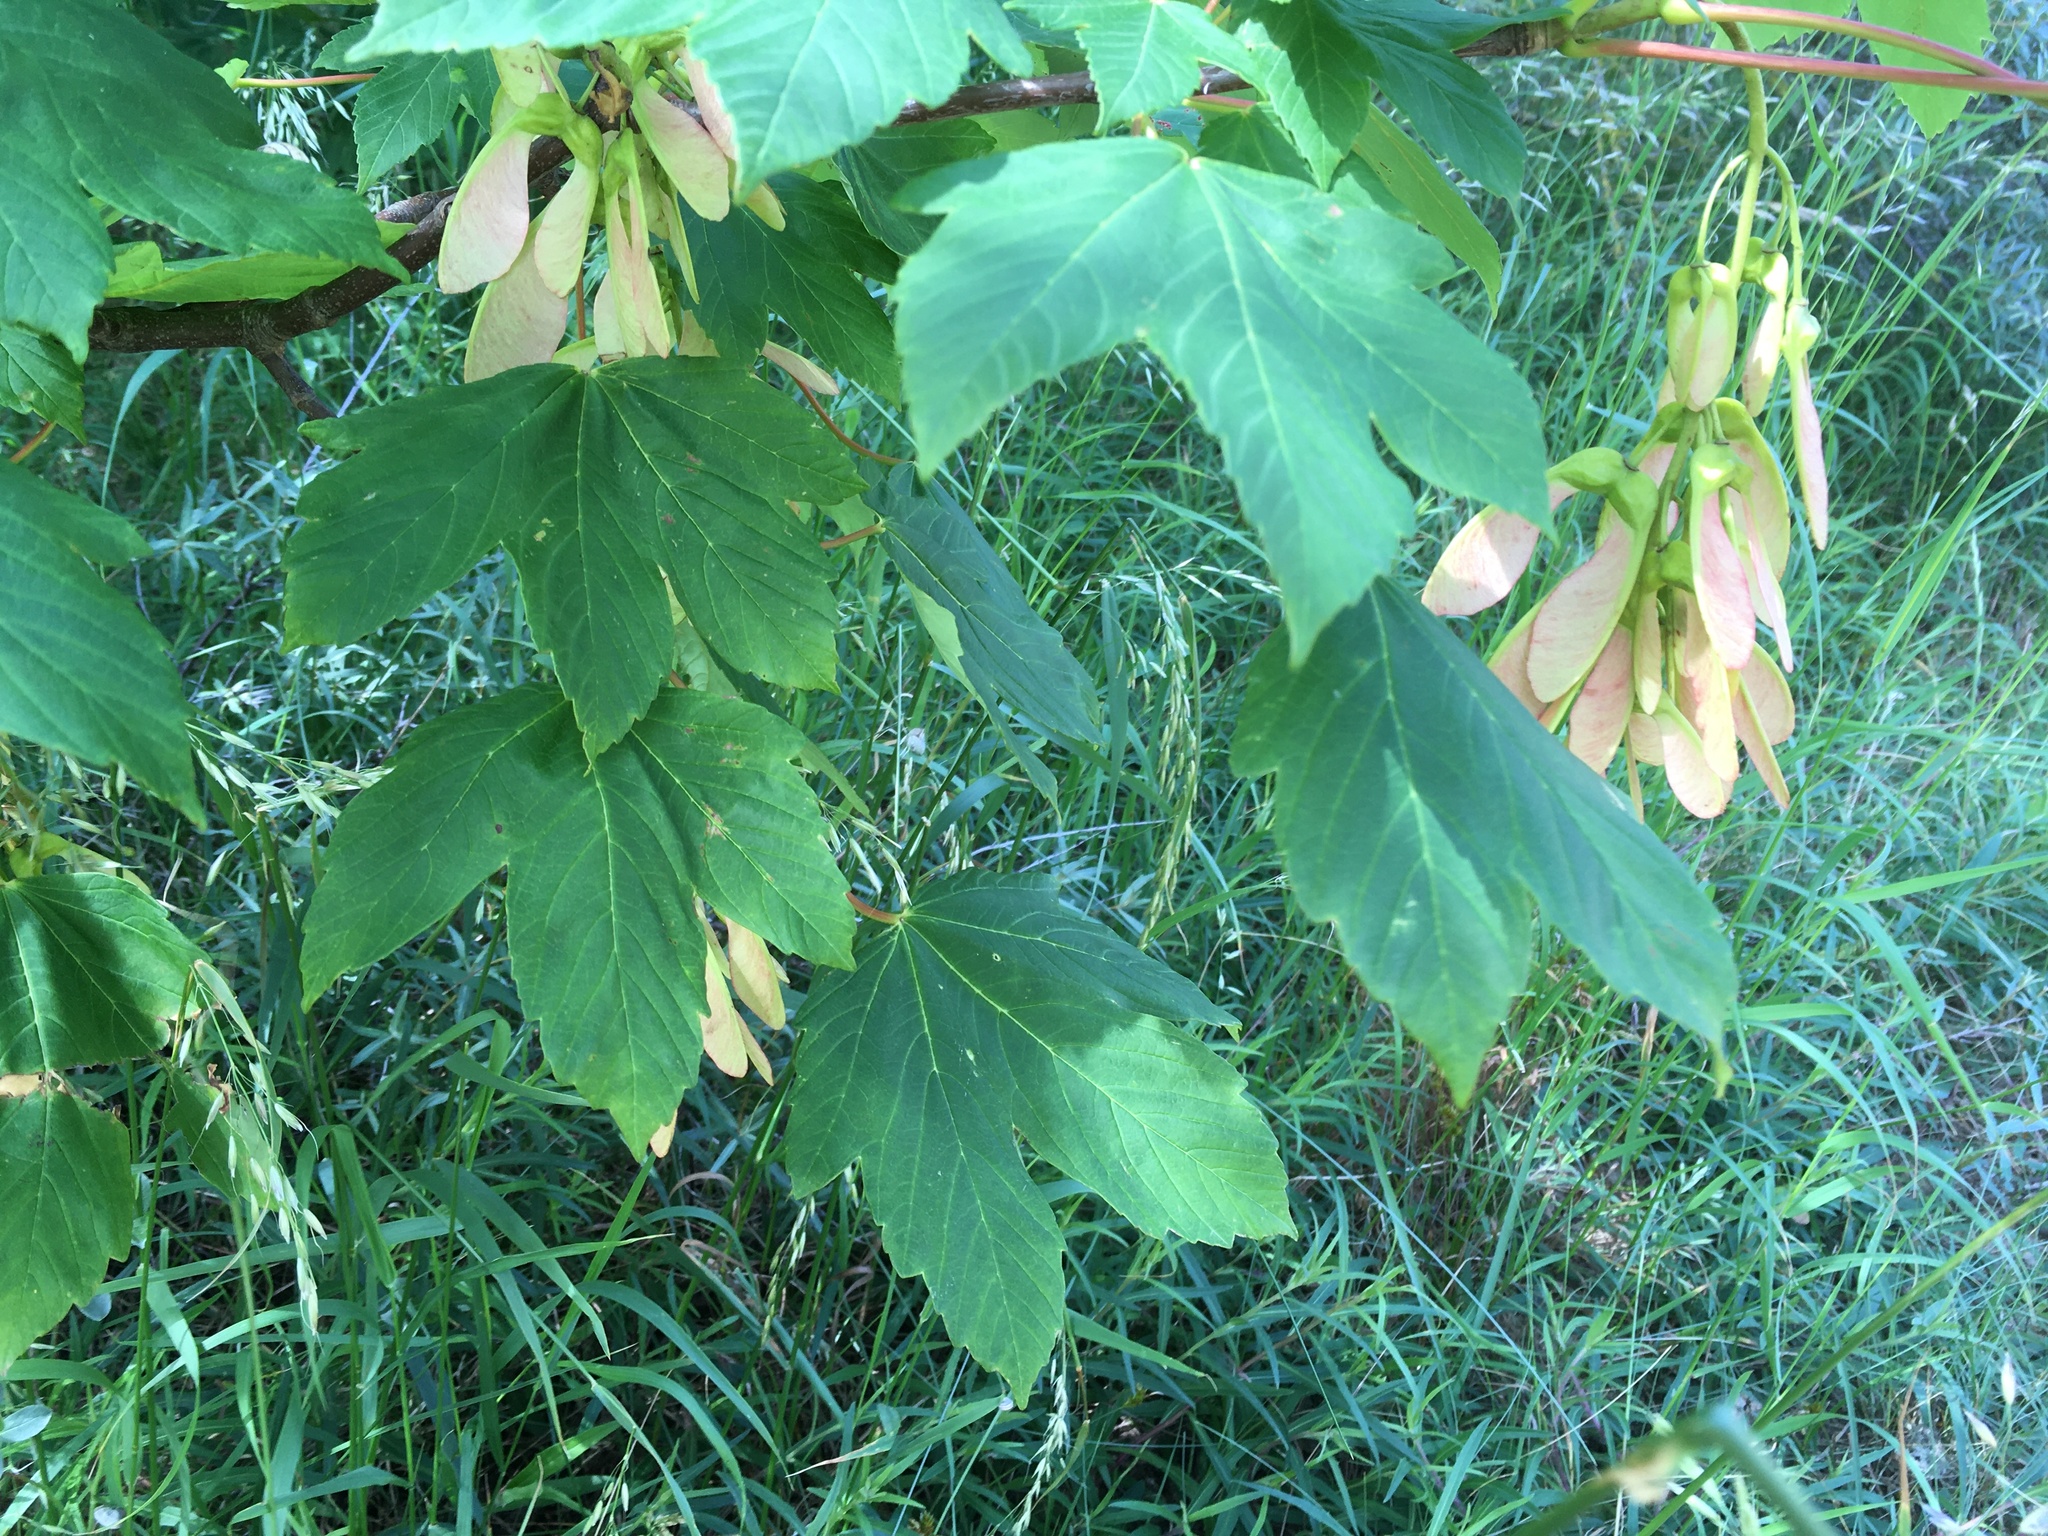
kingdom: Plantae
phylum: Tracheophyta
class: Magnoliopsida
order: Sapindales
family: Sapindaceae
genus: Acer
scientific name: Acer pseudoplatanus
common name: Sycamore
